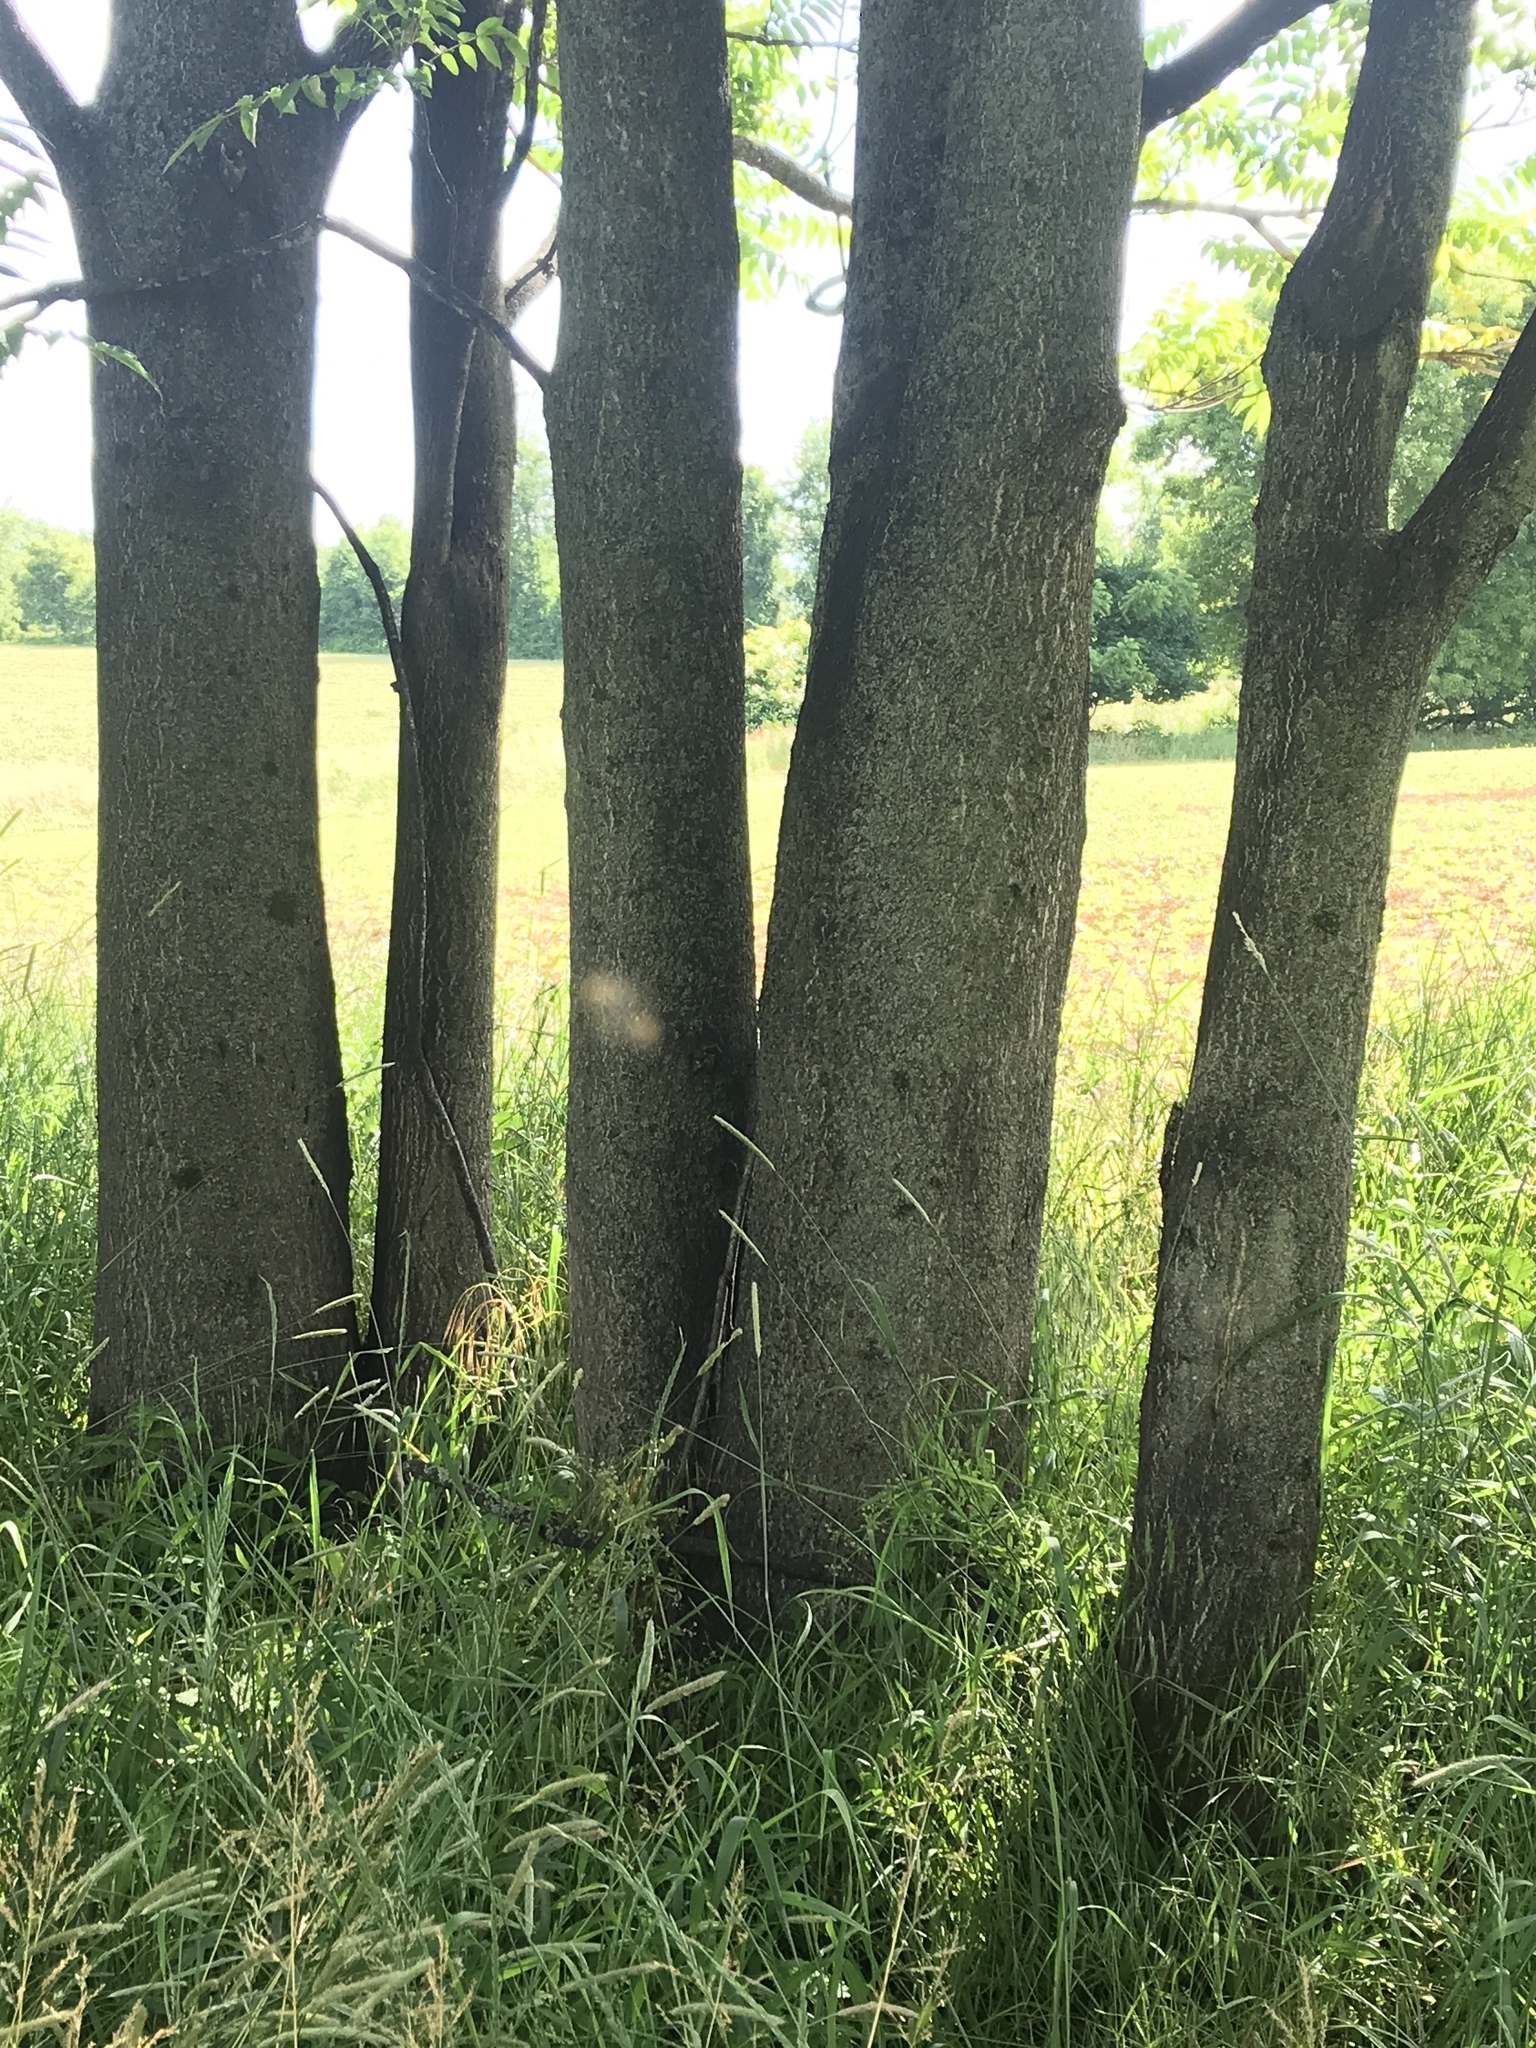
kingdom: Plantae
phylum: Tracheophyta
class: Magnoliopsida
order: Sapindales
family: Simaroubaceae
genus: Ailanthus
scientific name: Ailanthus altissima
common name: Tree-of-heaven
